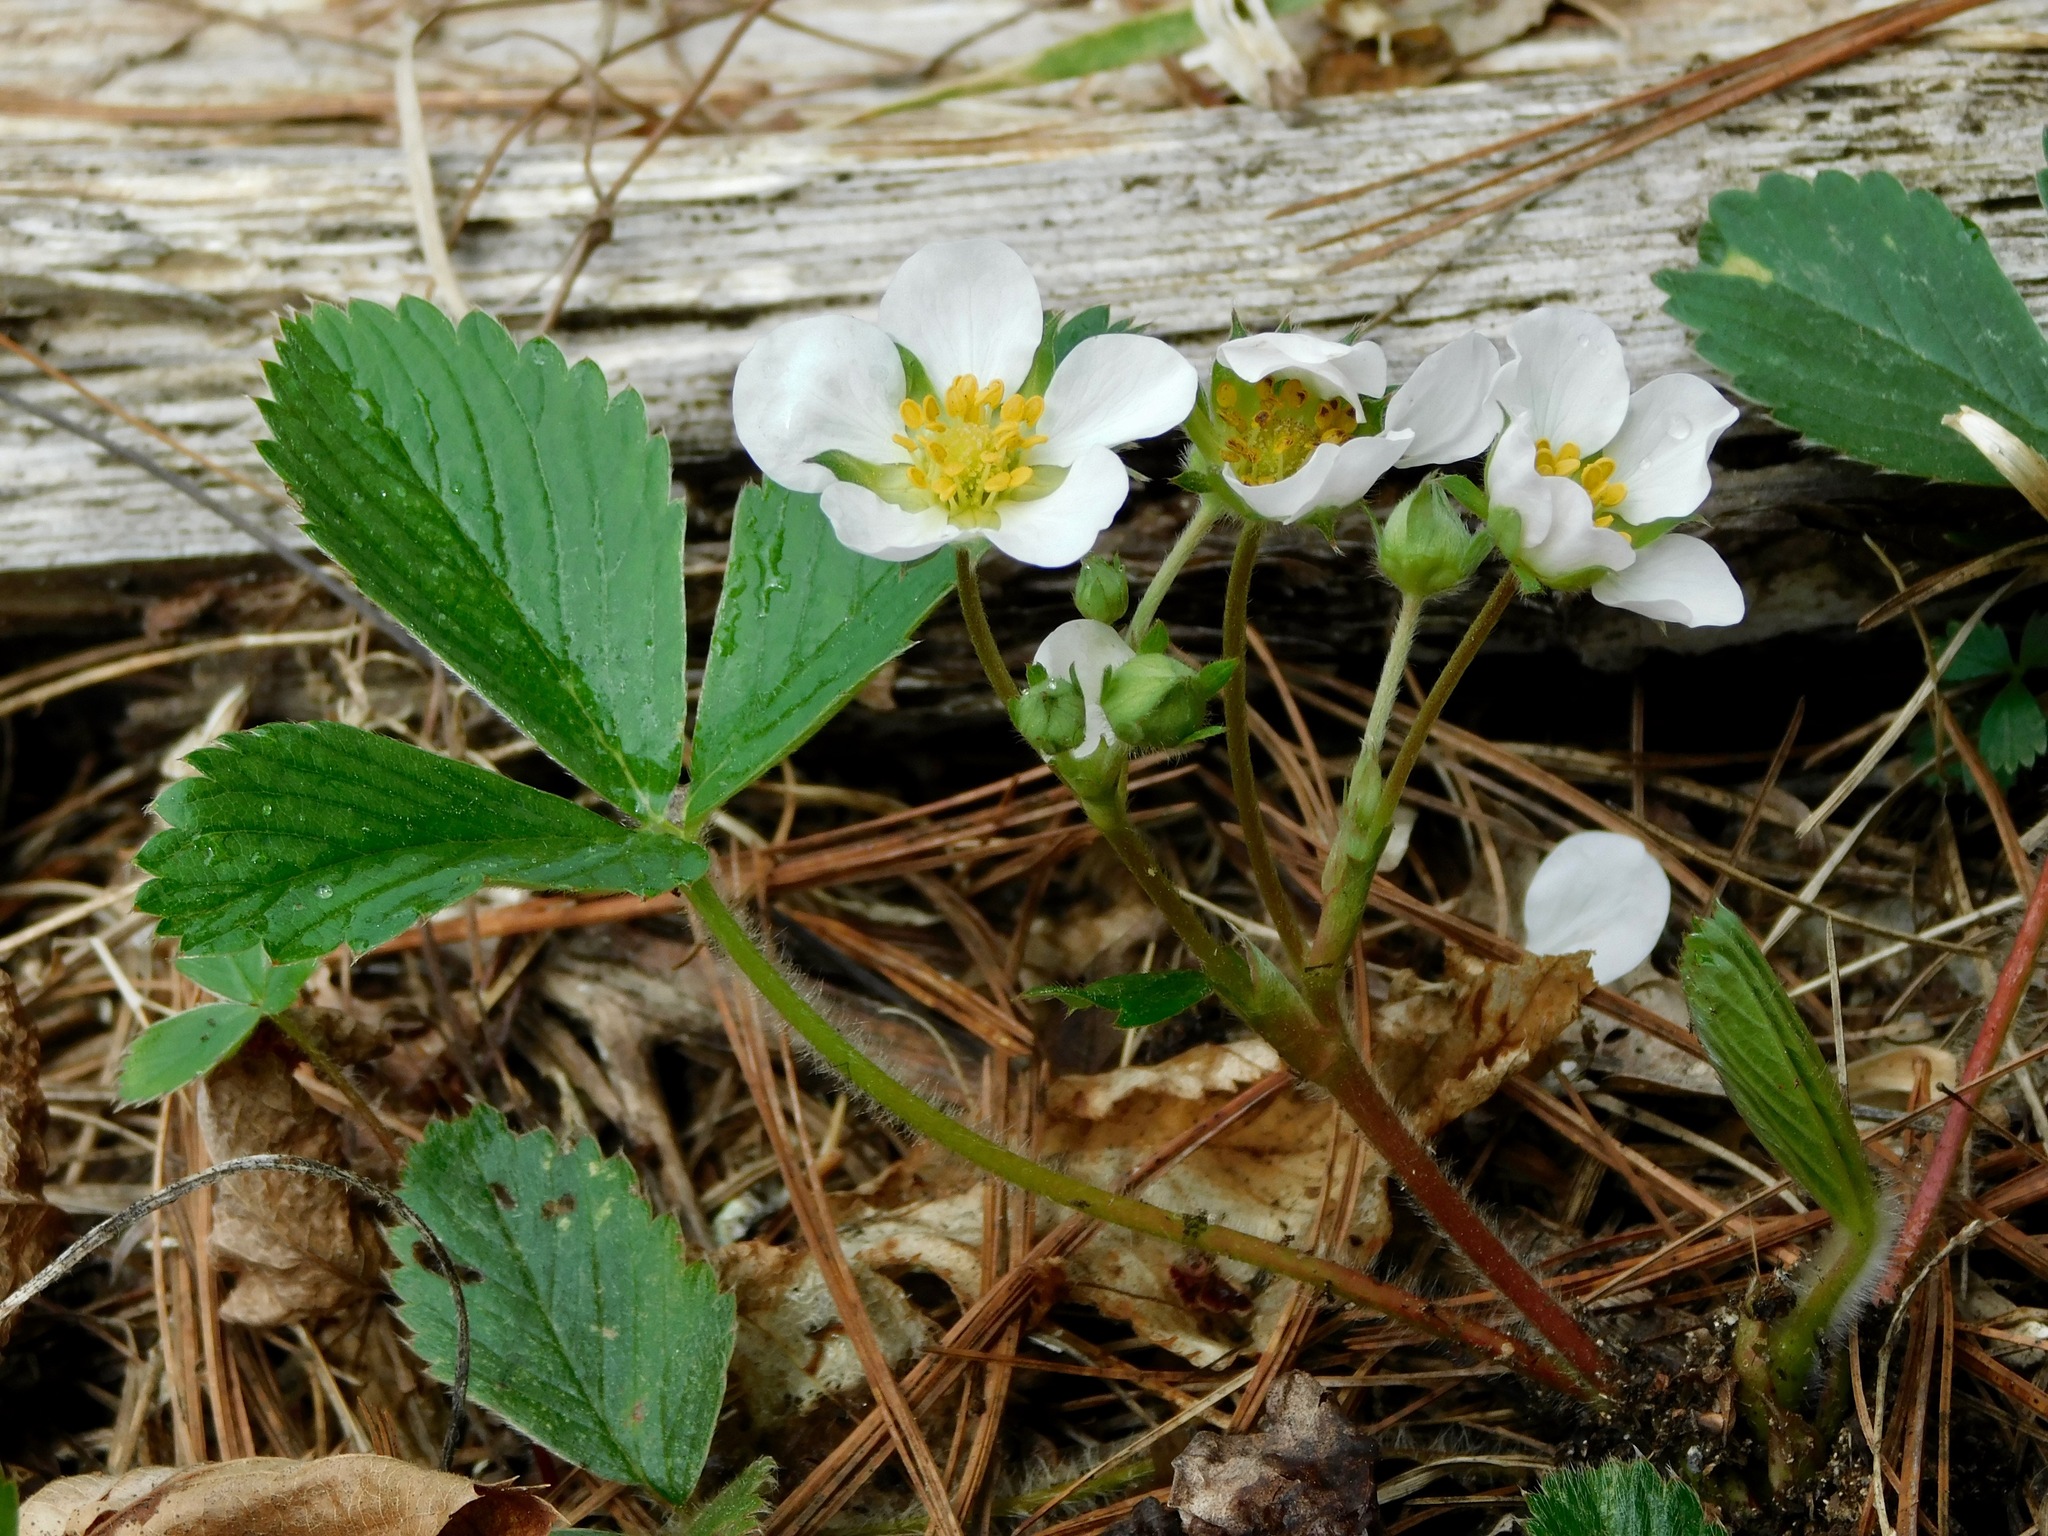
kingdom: Plantae
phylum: Tracheophyta
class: Magnoliopsida
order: Rosales
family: Rosaceae
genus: Fragaria
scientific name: Fragaria virginiana
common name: Thickleaved wild strawberry
